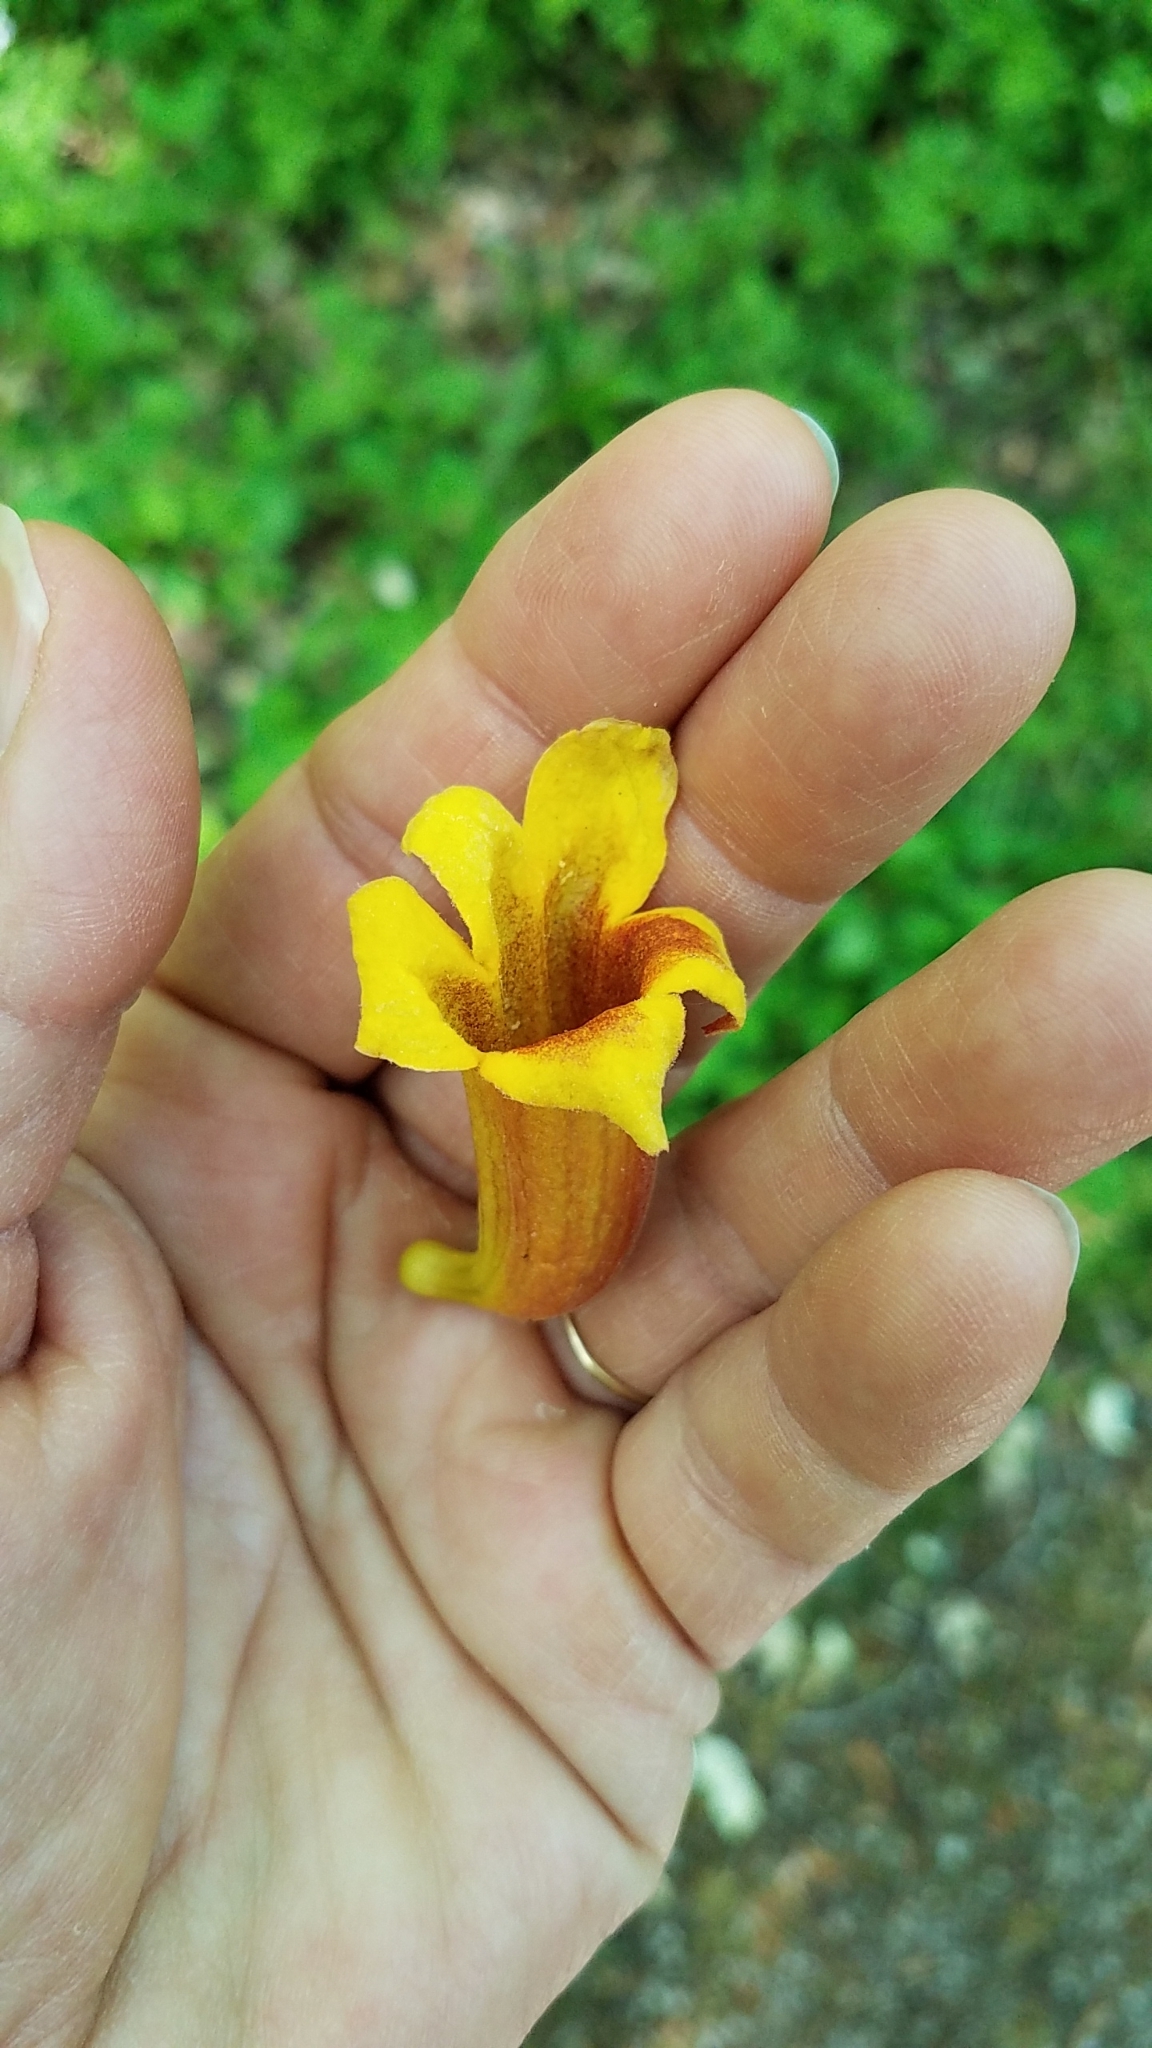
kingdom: Plantae
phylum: Tracheophyta
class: Magnoliopsida
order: Lamiales
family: Bignoniaceae
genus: Bignonia
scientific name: Bignonia capreolata
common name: Crossvine
